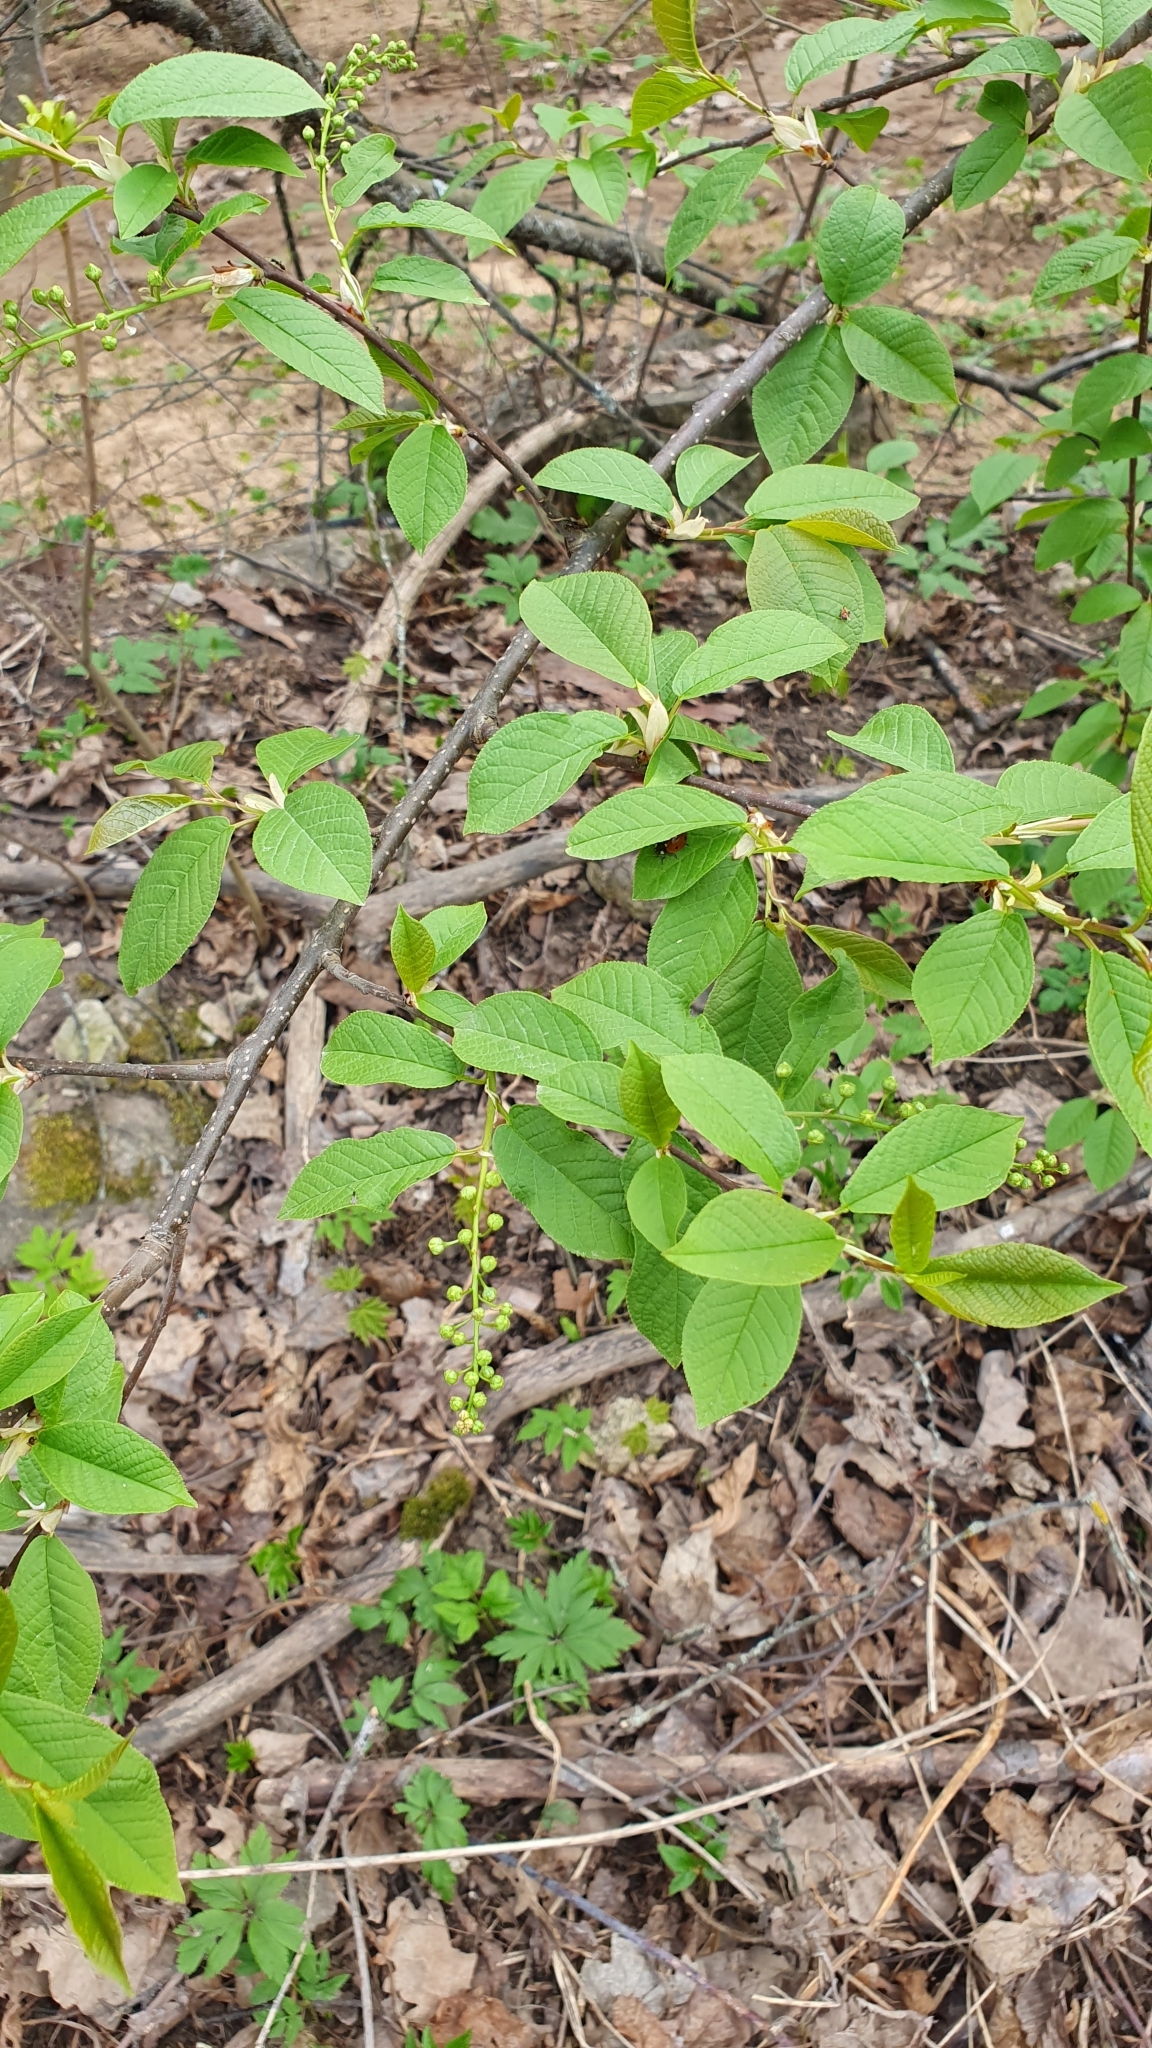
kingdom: Plantae
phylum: Tracheophyta
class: Magnoliopsida
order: Rosales
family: Rosaceae
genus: Prunus
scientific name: Prunus padus
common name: Bird cherry
